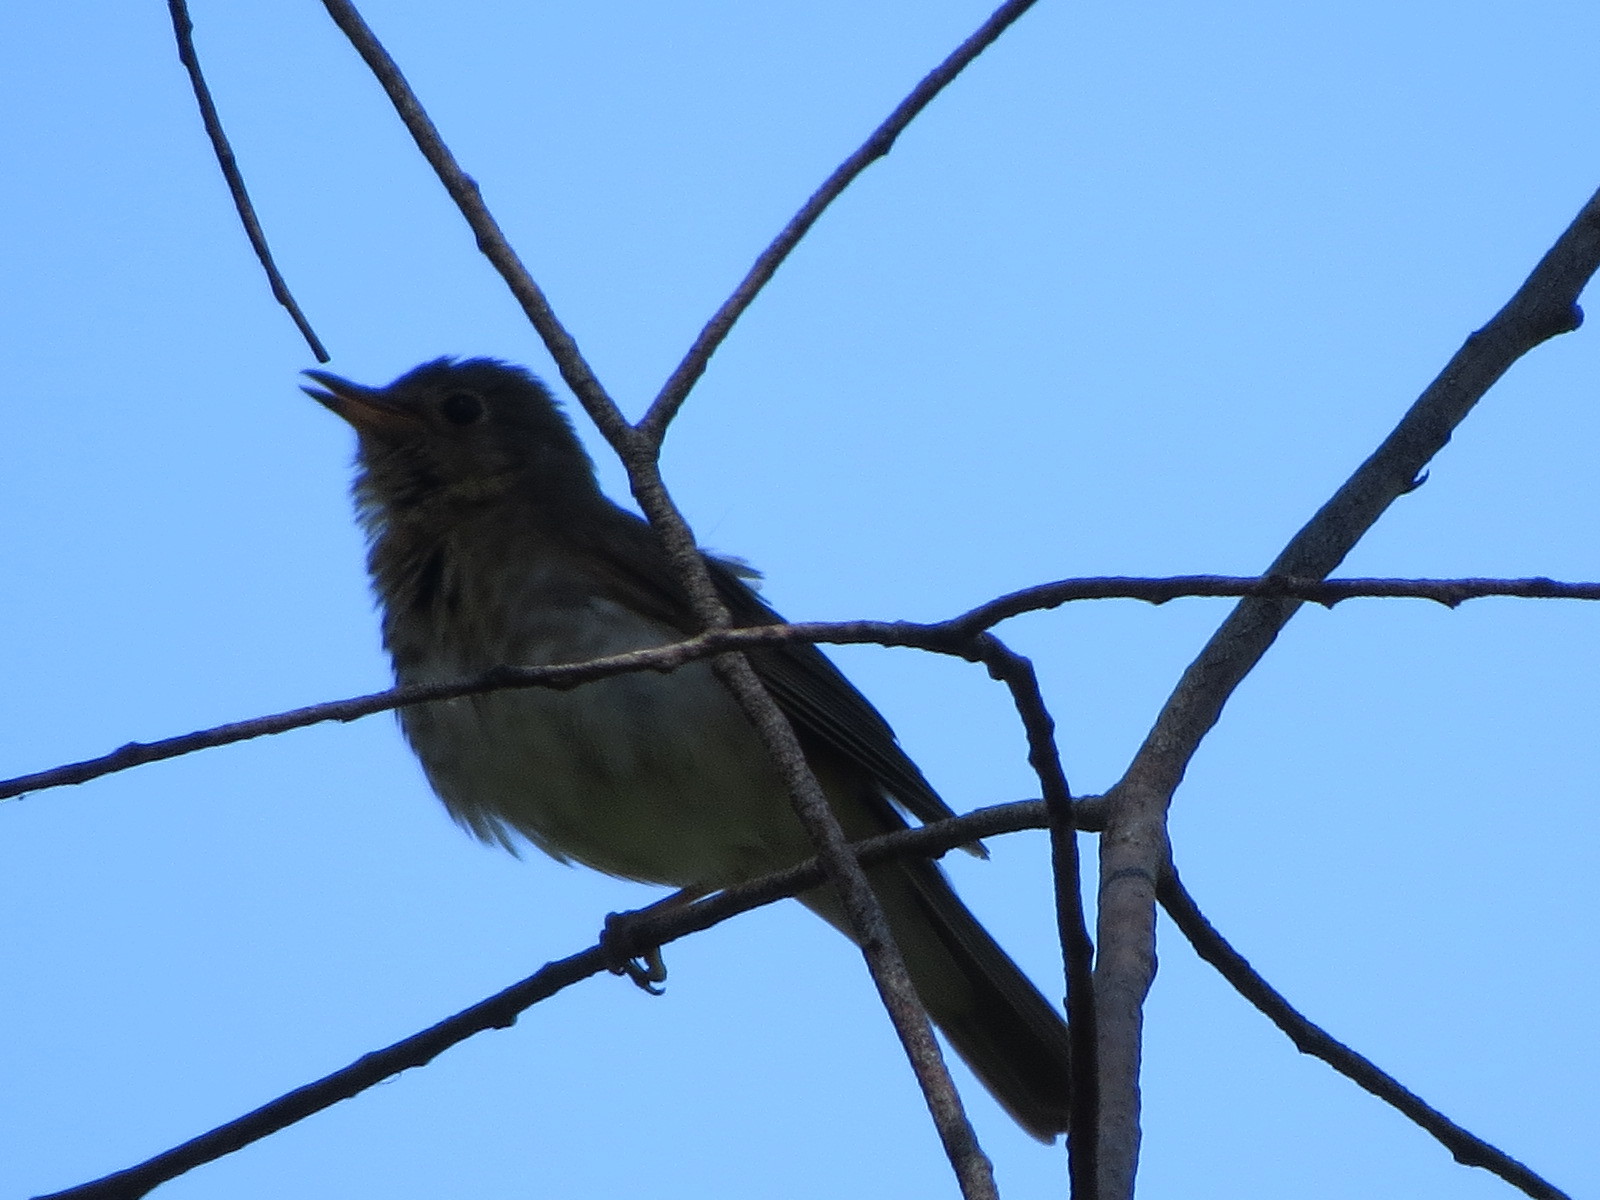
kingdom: Animalia
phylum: Chordata
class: Aves
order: Passeriformes
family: Turdidae
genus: Catharus
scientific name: Catharus ustulatus
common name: Swainson's thrush
